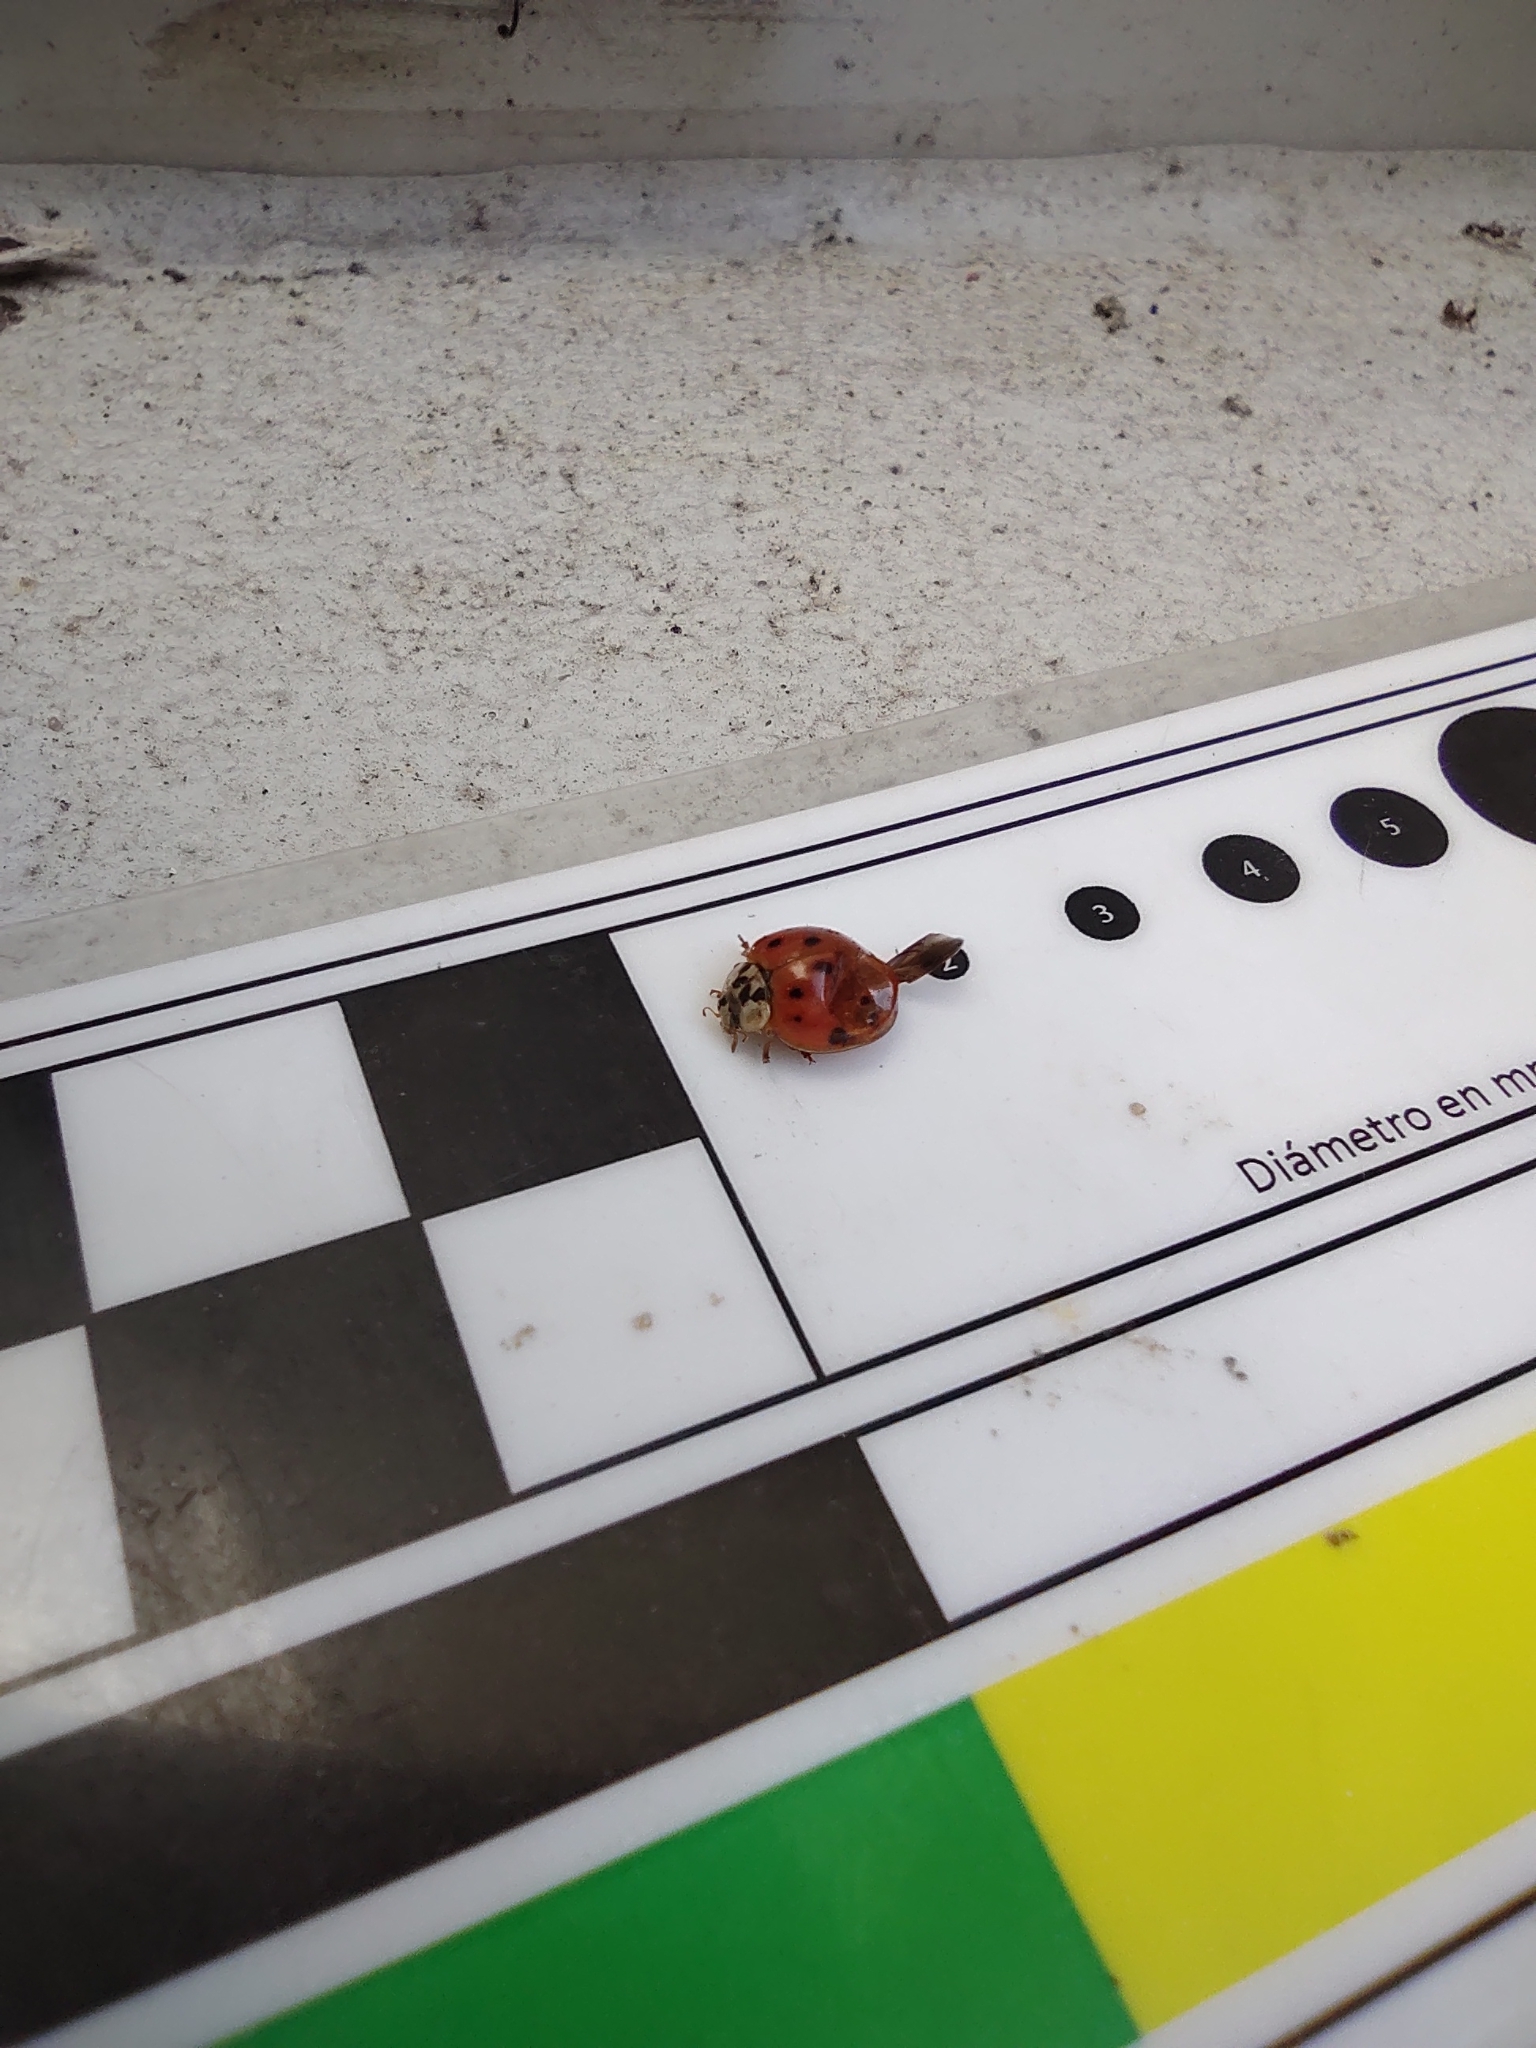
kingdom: Animalia
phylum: Arthropoda
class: Insecta
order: Coleoptera
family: Coccinellidae
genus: Harmonia
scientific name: Harmonia axyridis
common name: Harlequin ladybird
